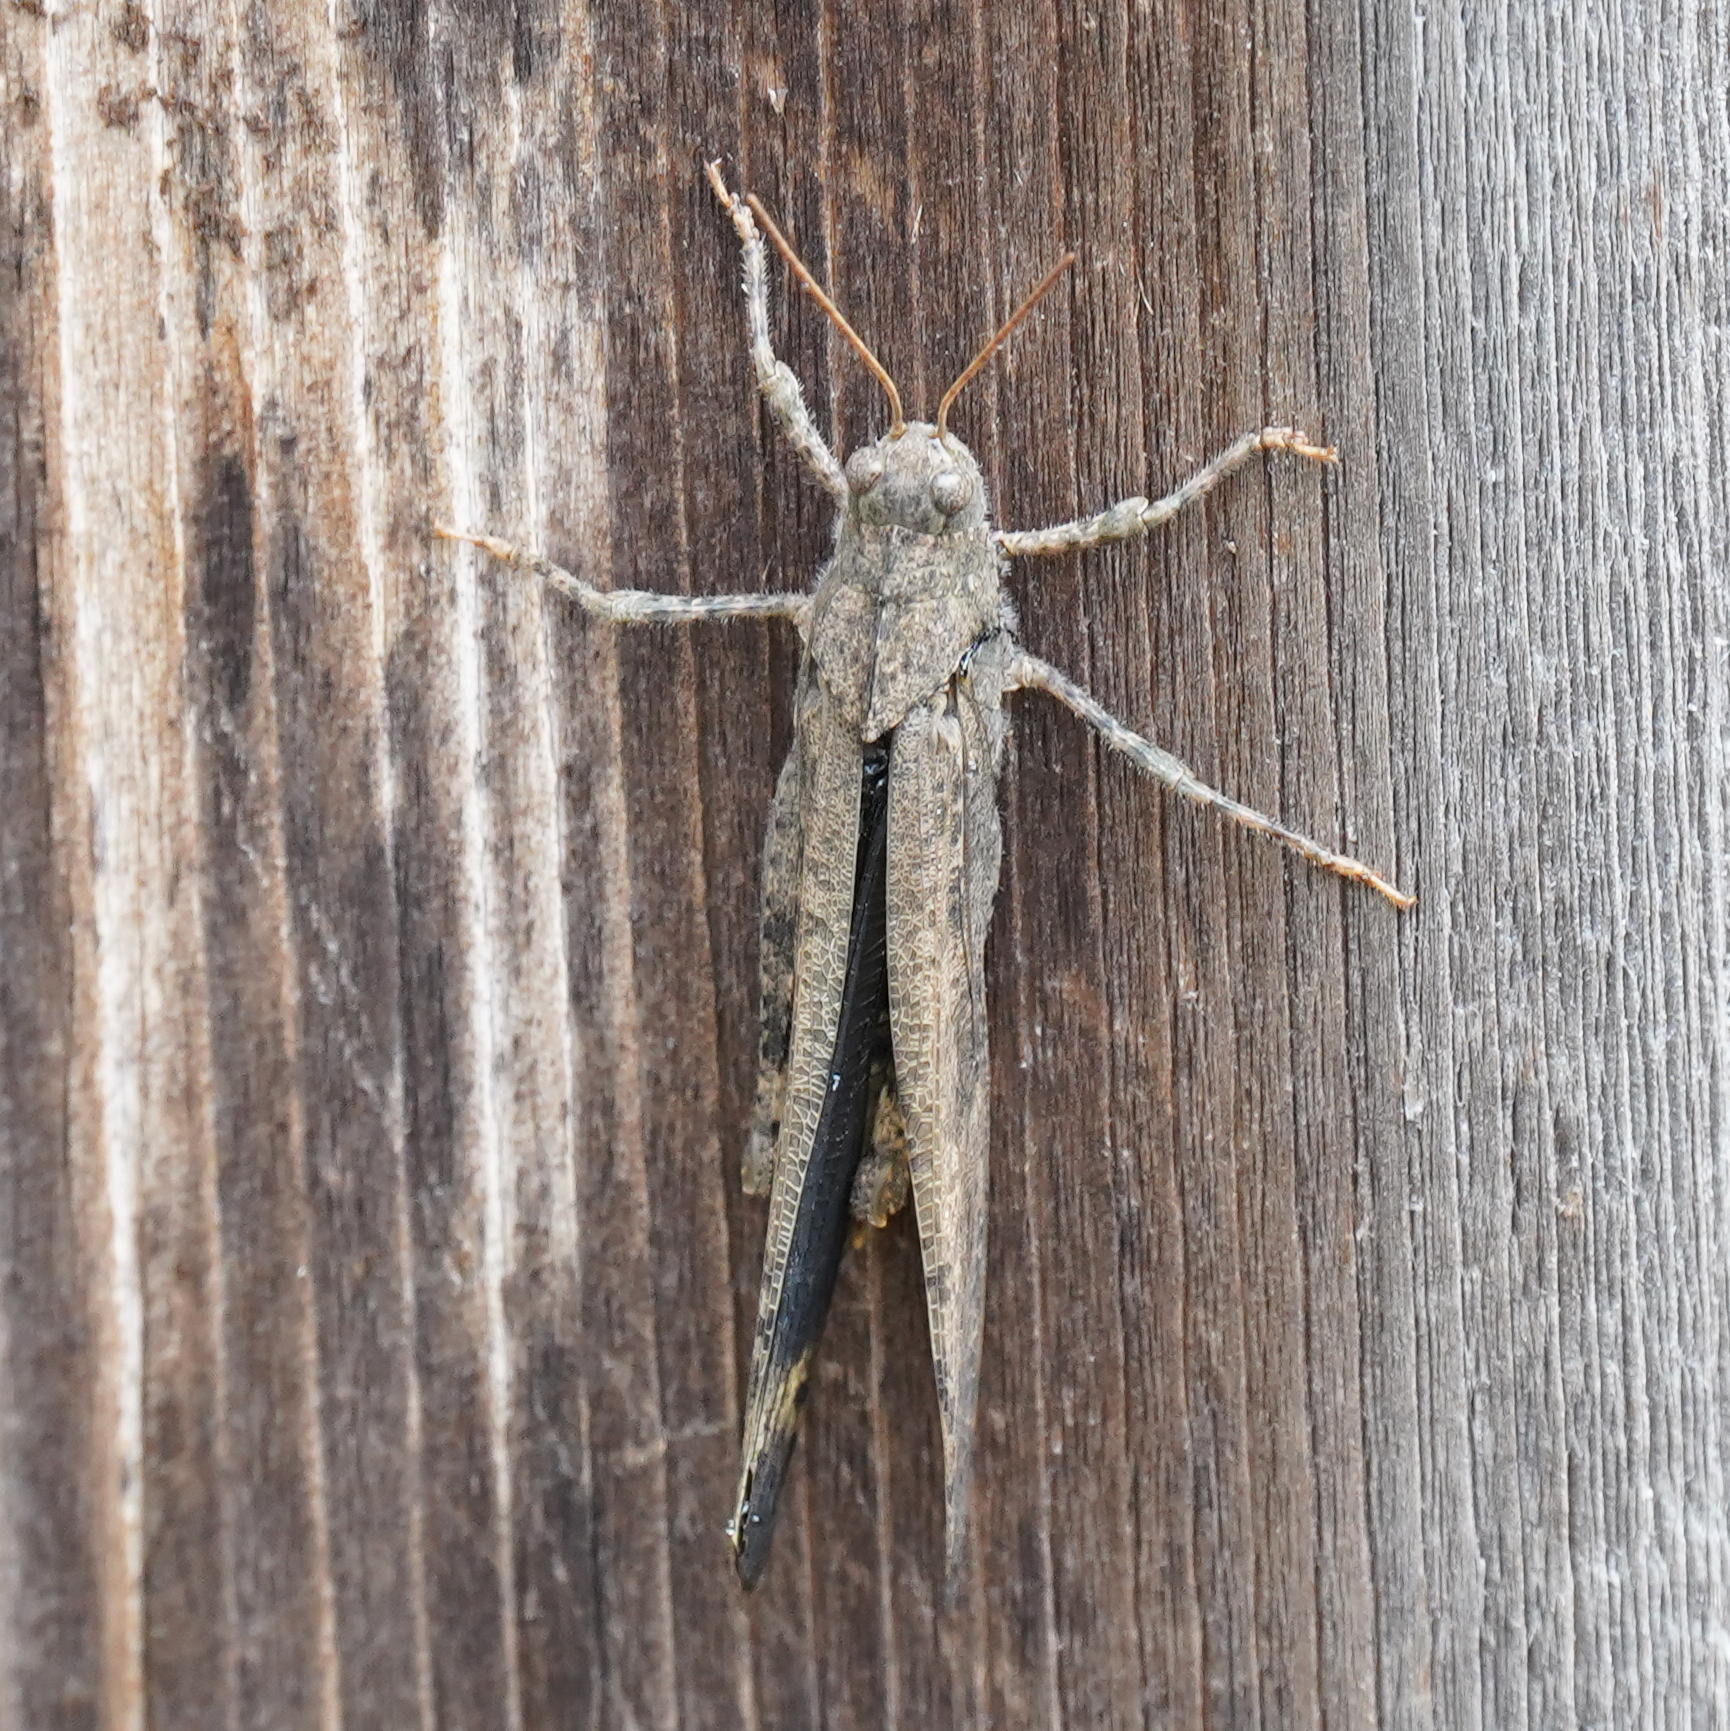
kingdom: Animalia
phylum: Arthropoda
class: Insecta
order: Orthoptera
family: Acrididae
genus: Dissosteira
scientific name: Dissosteira carolina
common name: Carolina grasshopper
